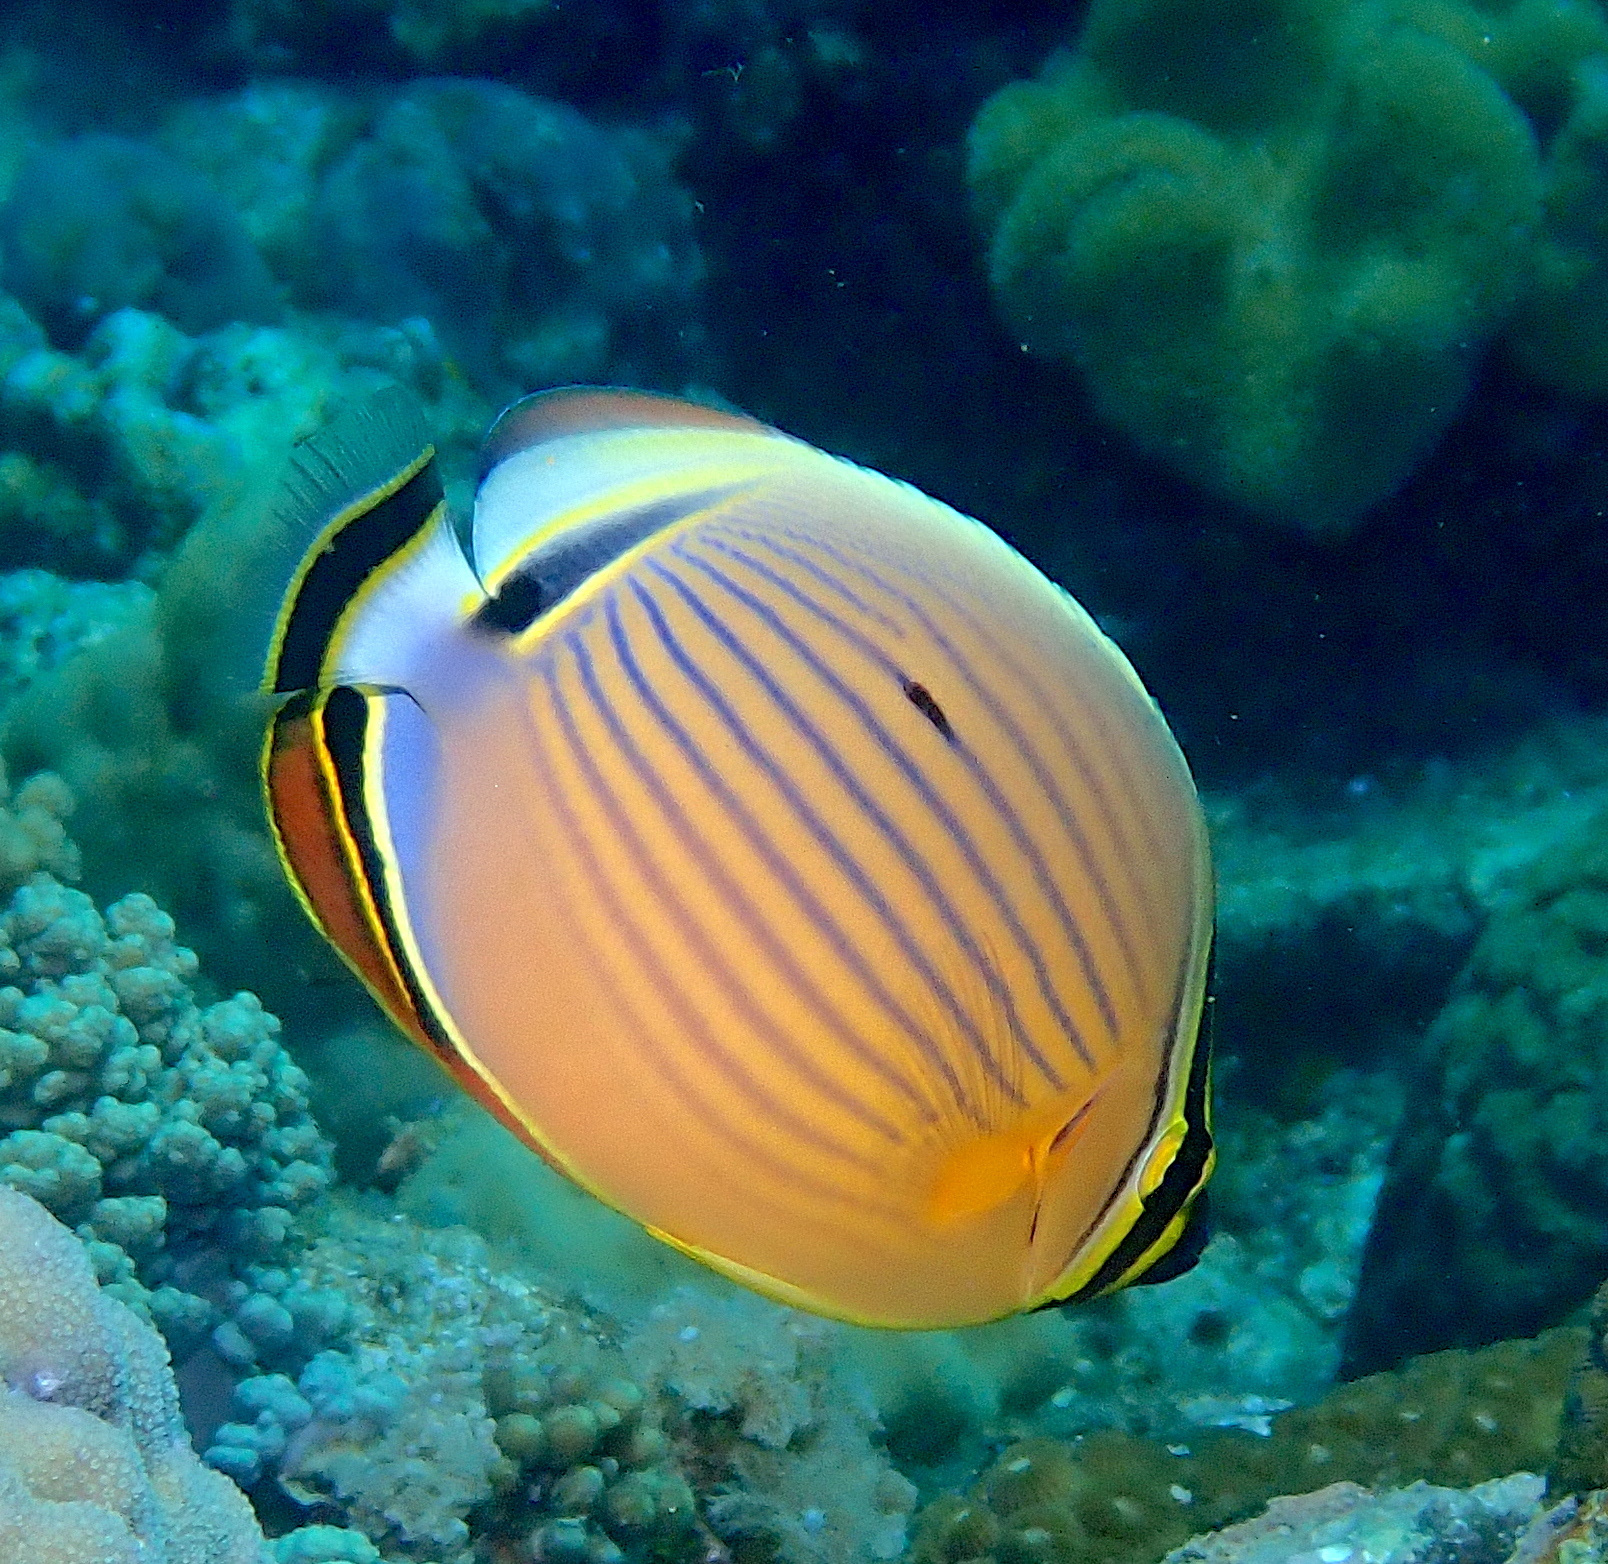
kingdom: Animalia
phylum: Chordata
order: Perciformes
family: Chaetodontidae
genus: Chaetodon
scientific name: Chaetodon lunulatus
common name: Redfin butterflyfish
